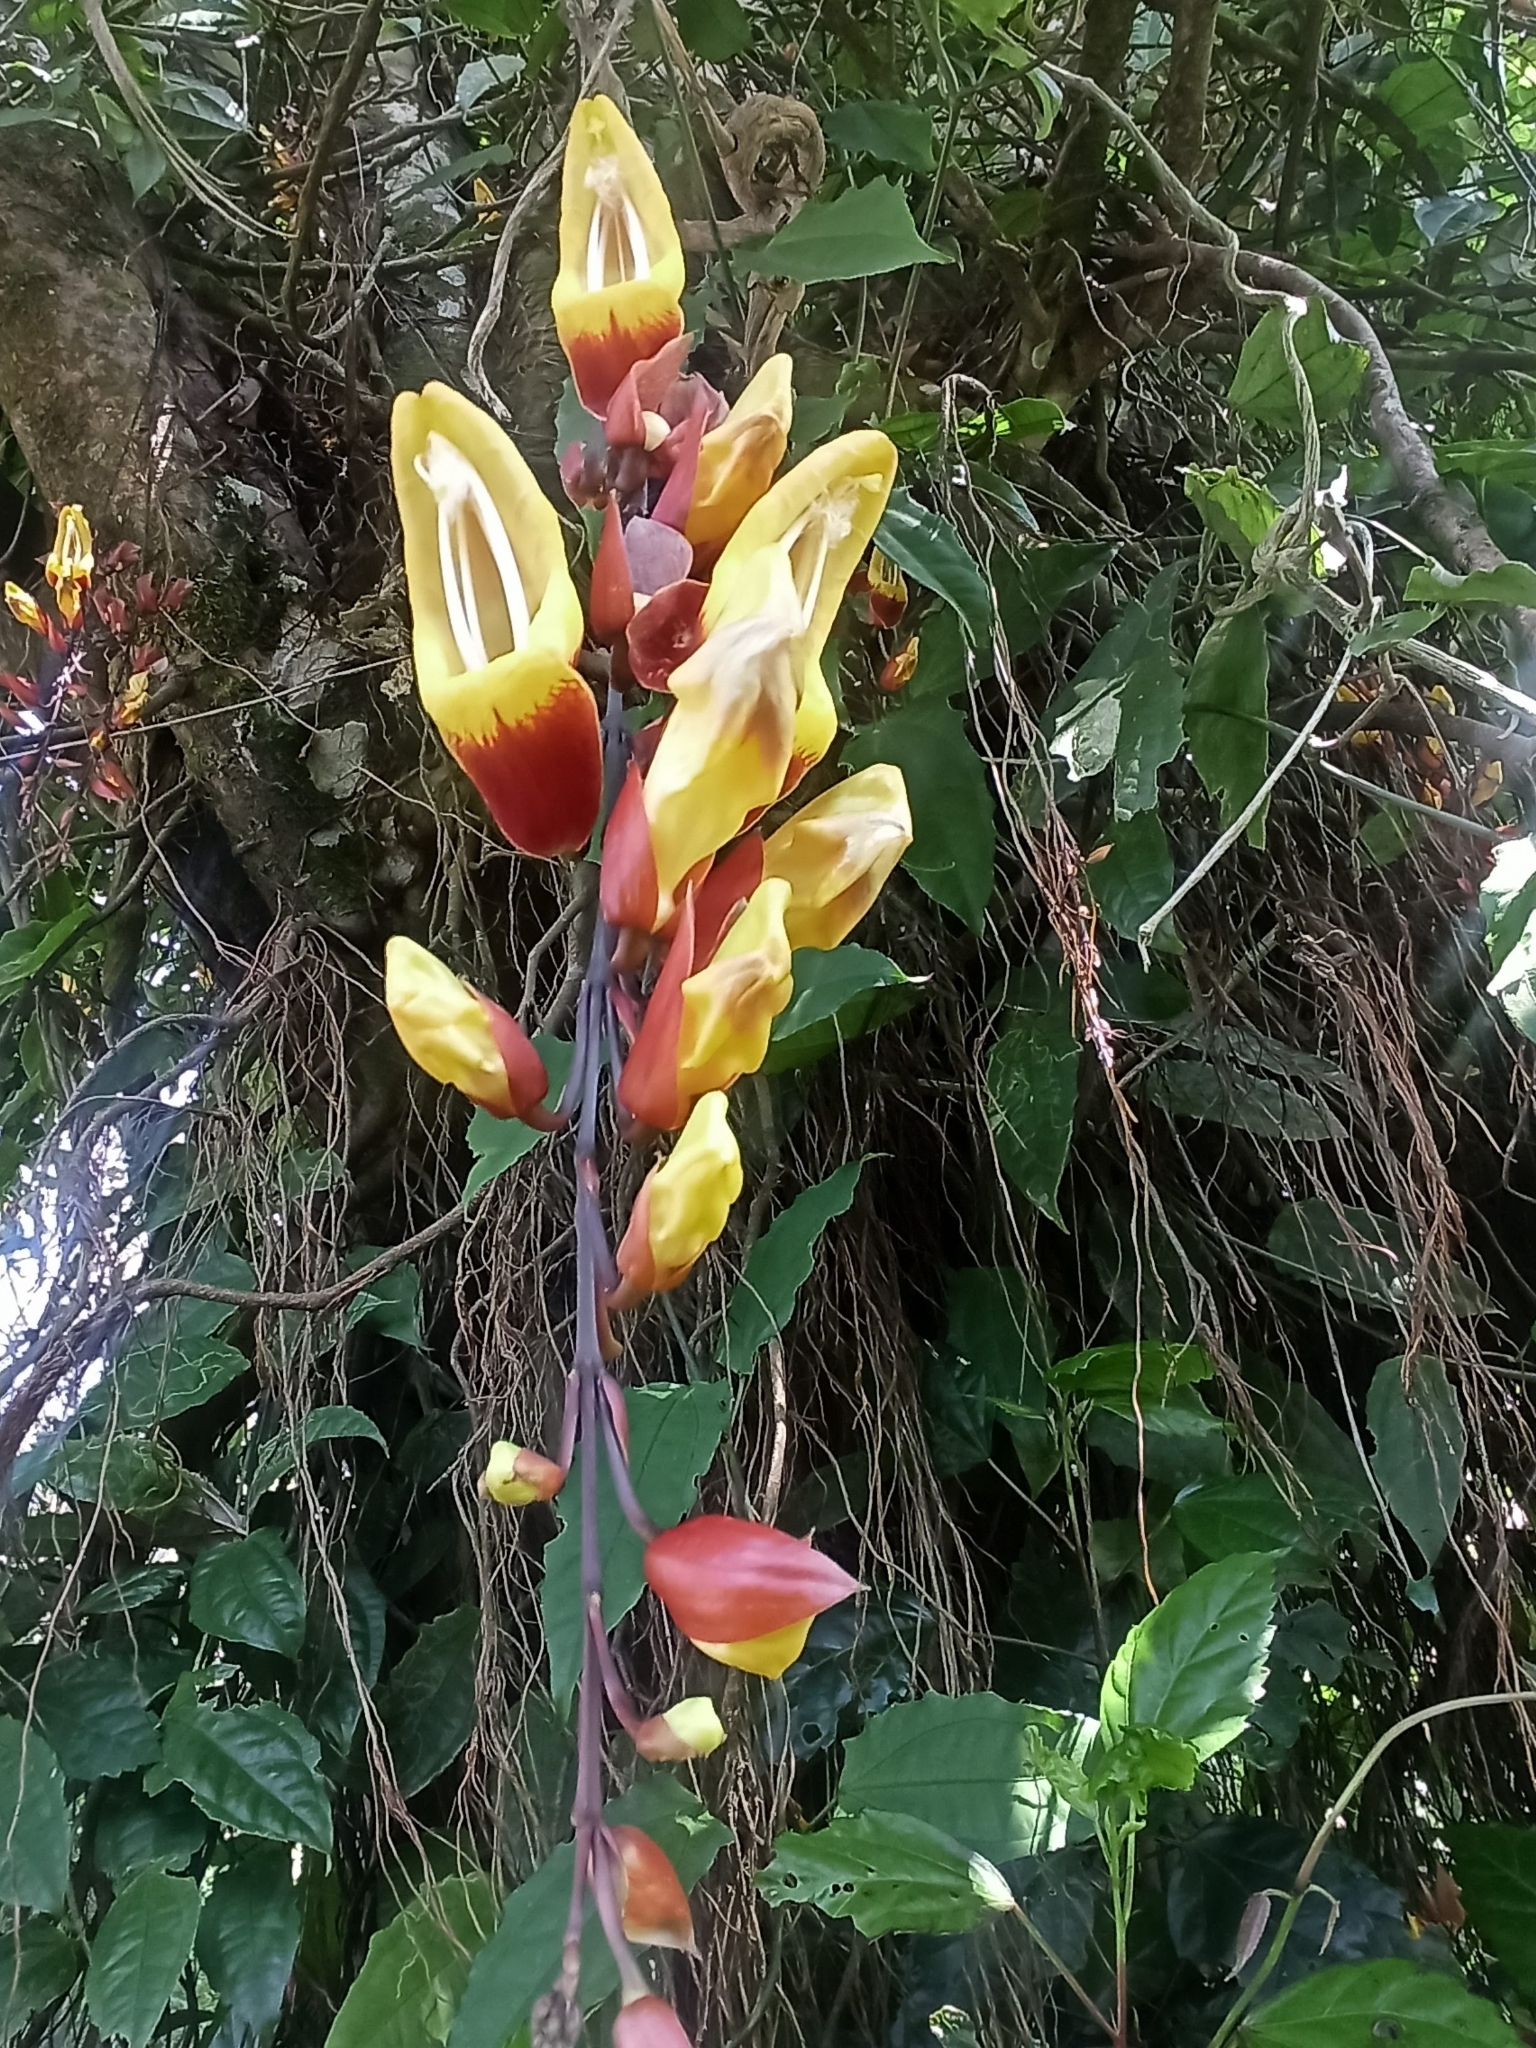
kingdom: Plantae
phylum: Tracheophyta
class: Magnoliopsida
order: Lamiales
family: Acanthaceae
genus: Thunbergia
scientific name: Thunbergia mysorensis
